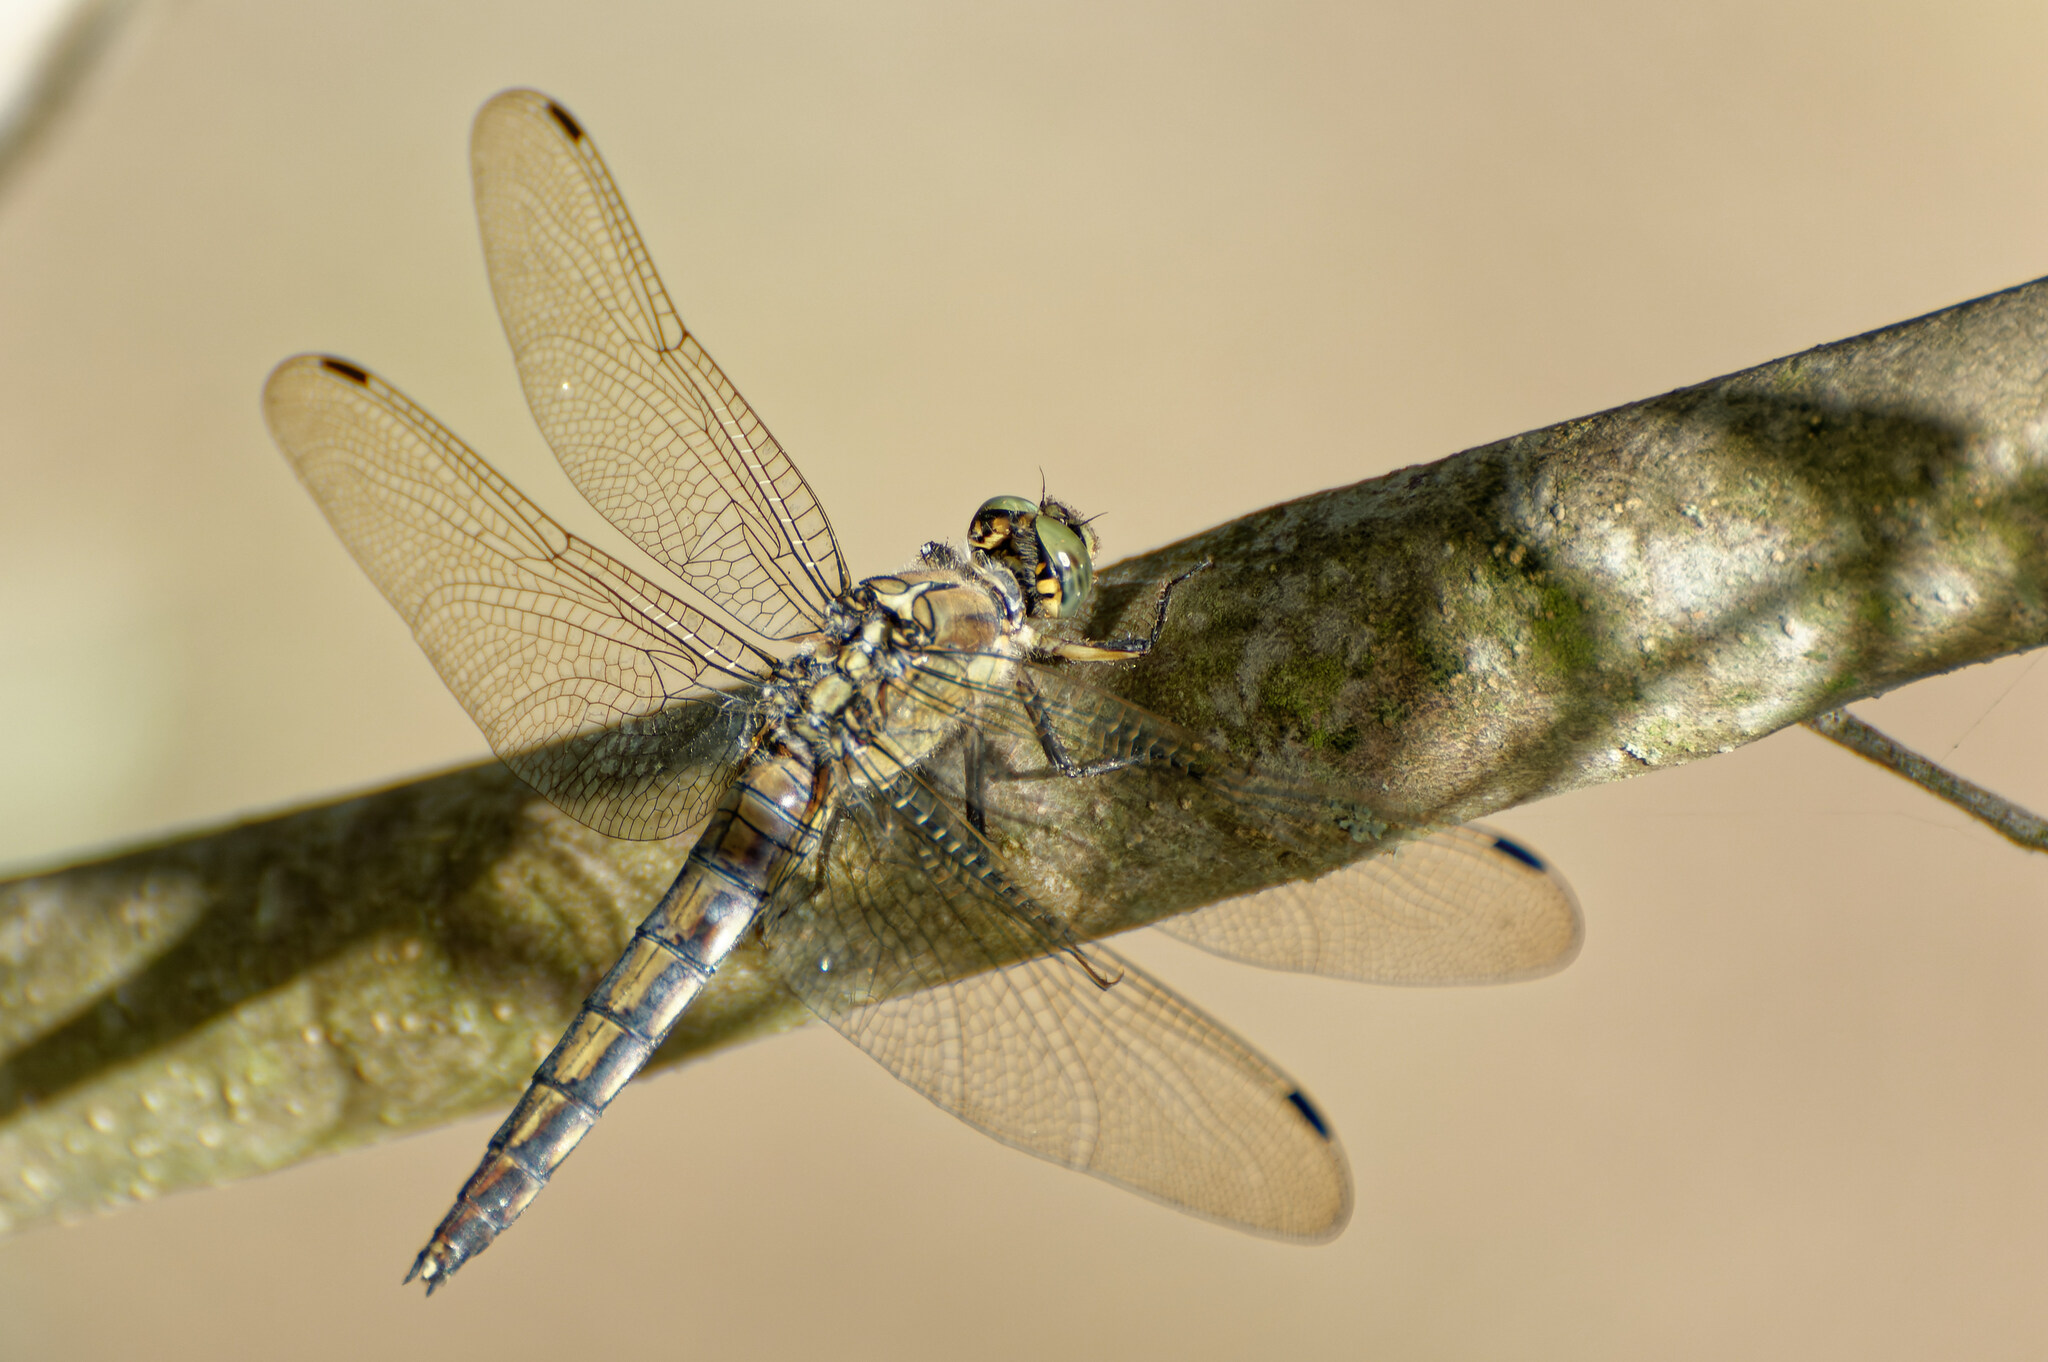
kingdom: Animalia
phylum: Arthropoda
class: Insecta
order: Odonata
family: Libellulidae
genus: Orthetrum
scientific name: Orthetrum cancellatum
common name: Black-tailed skimmer
